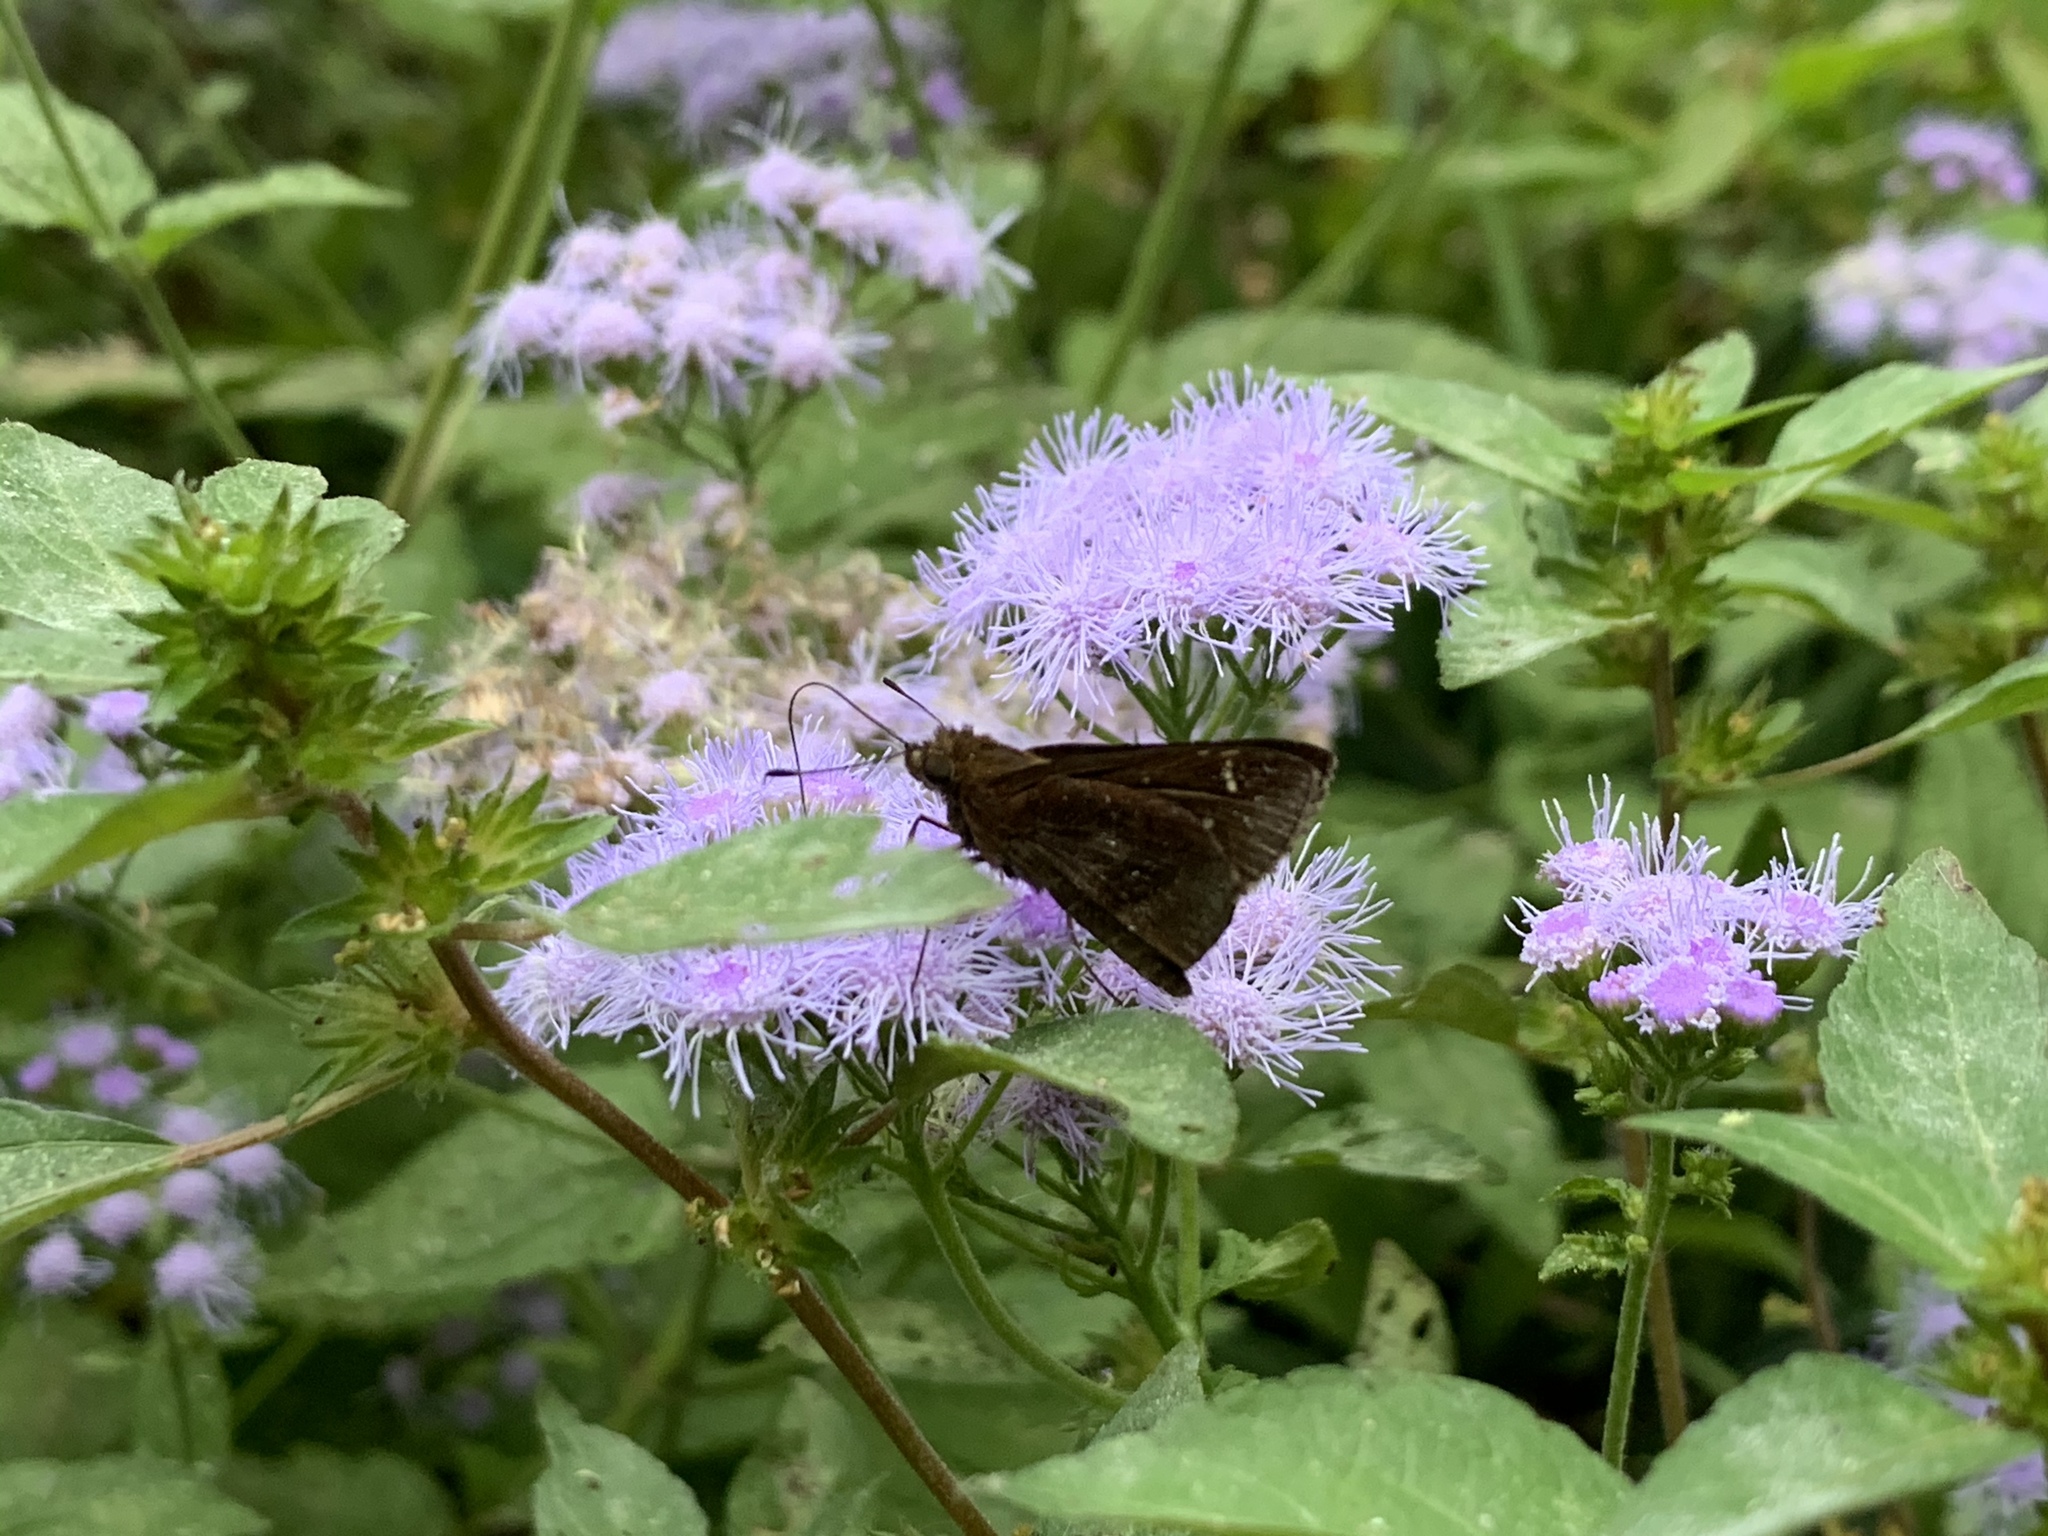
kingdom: Animalia
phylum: Arthropoda
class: Insecta
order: Lepidoptera
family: Hesperiidae
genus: Lerema
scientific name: Lerema accius
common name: Clouded skipper
